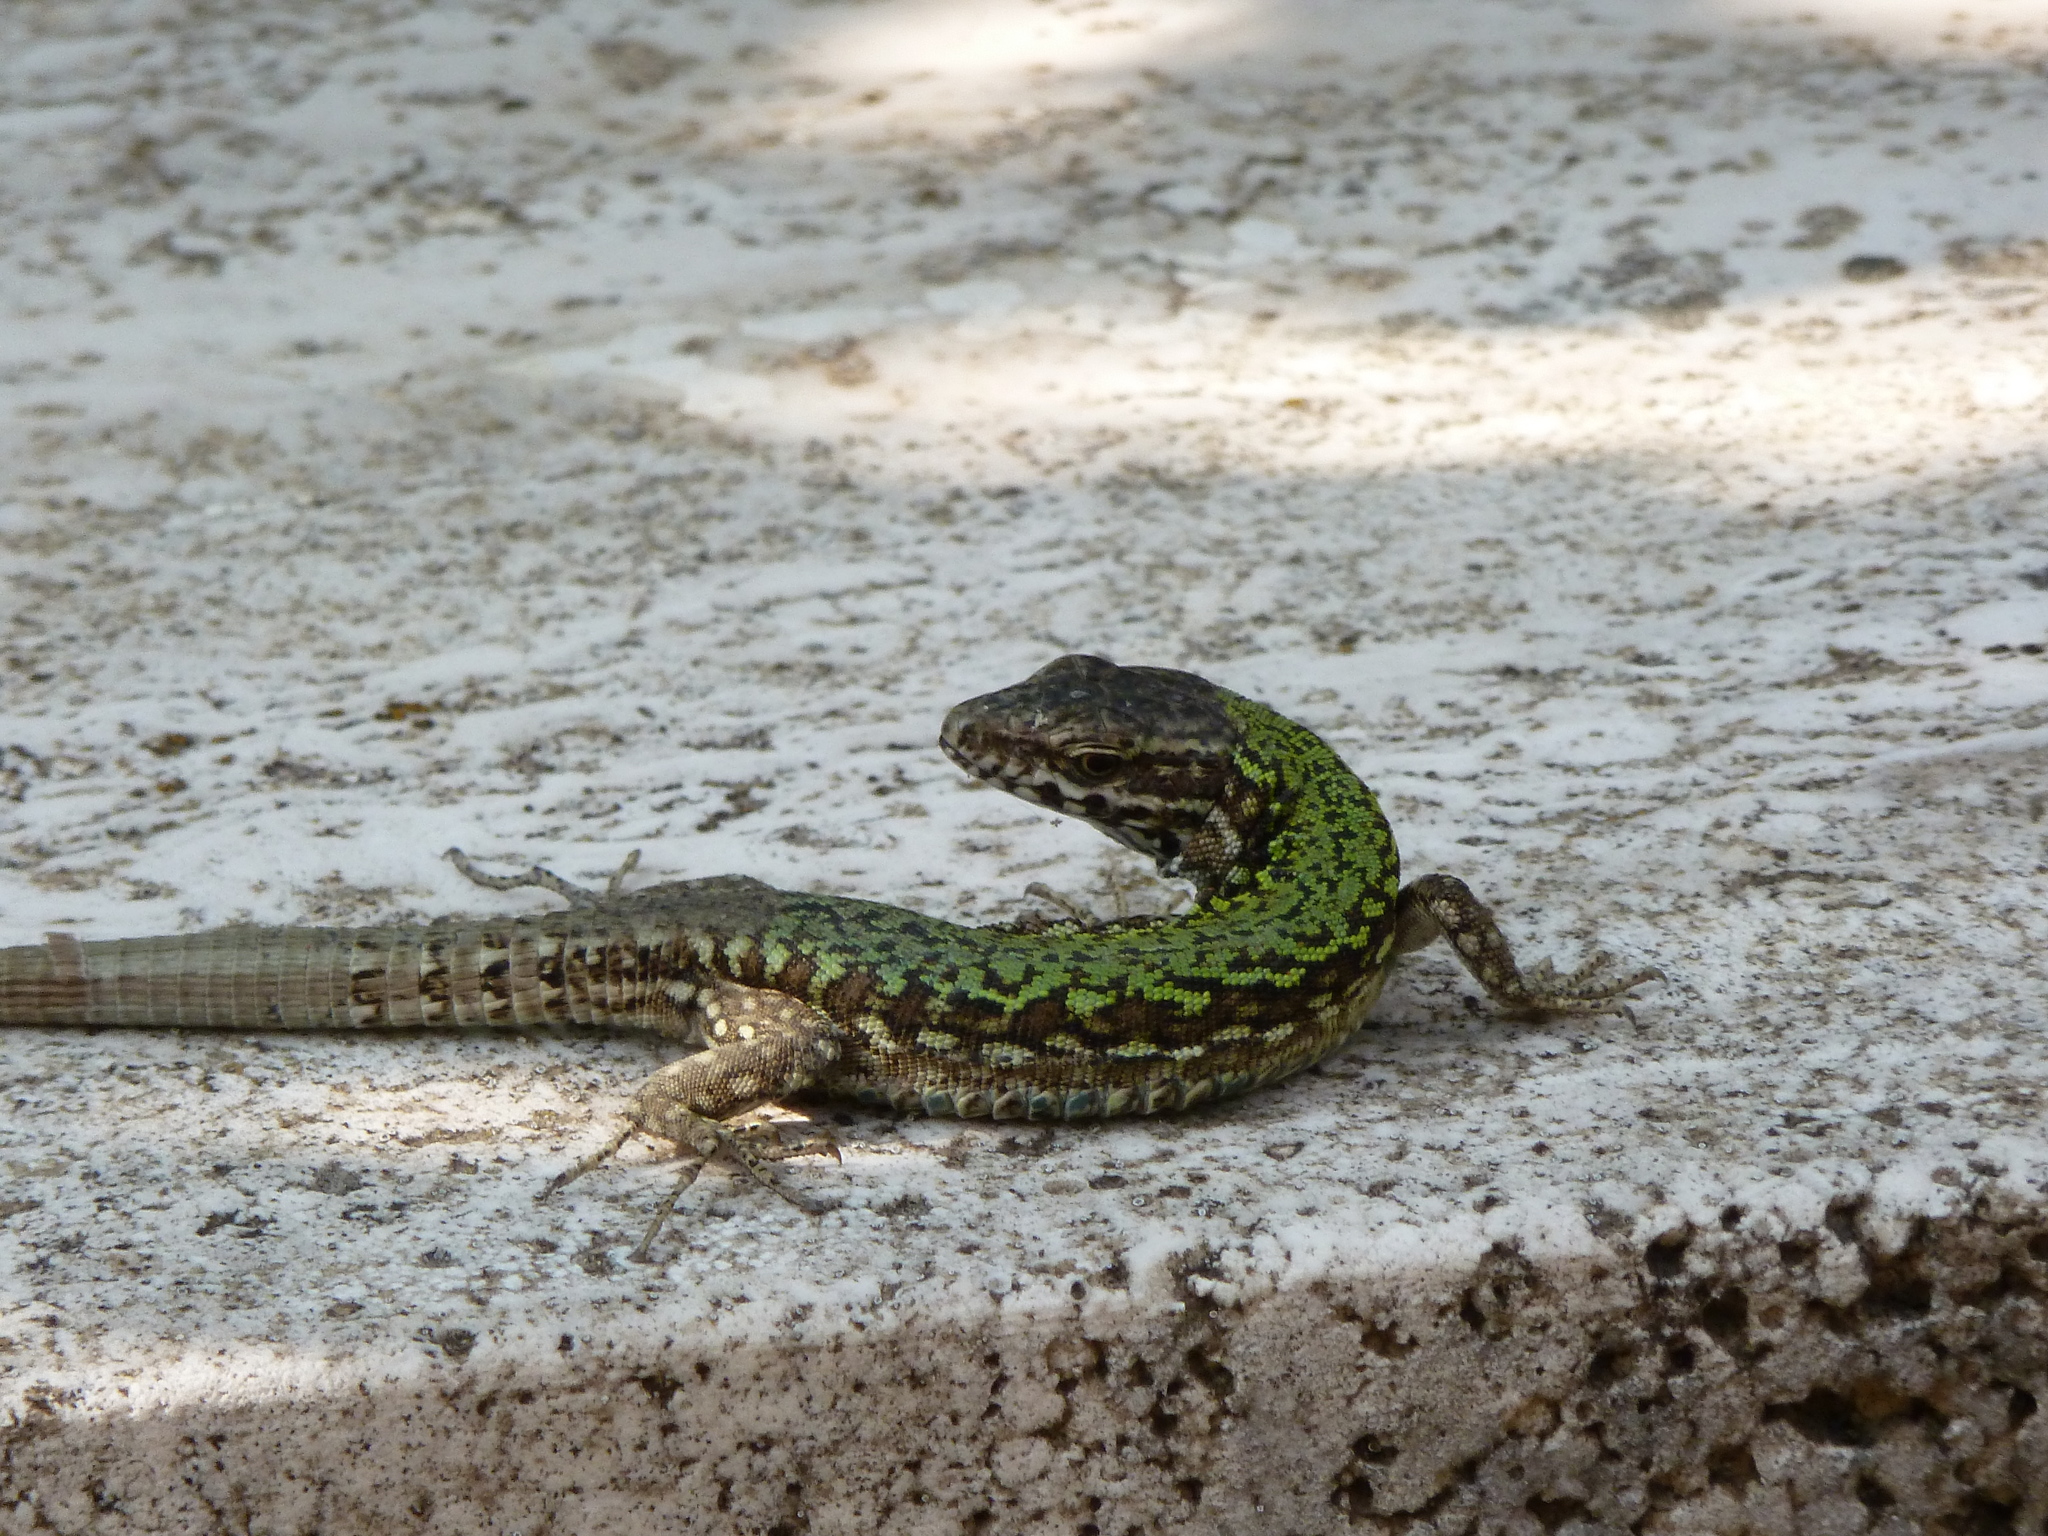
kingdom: Animalia
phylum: Chordata
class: Squamata
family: Lacertidae
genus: Podarcis
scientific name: Podarcis muralis
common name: Common wall lizard
